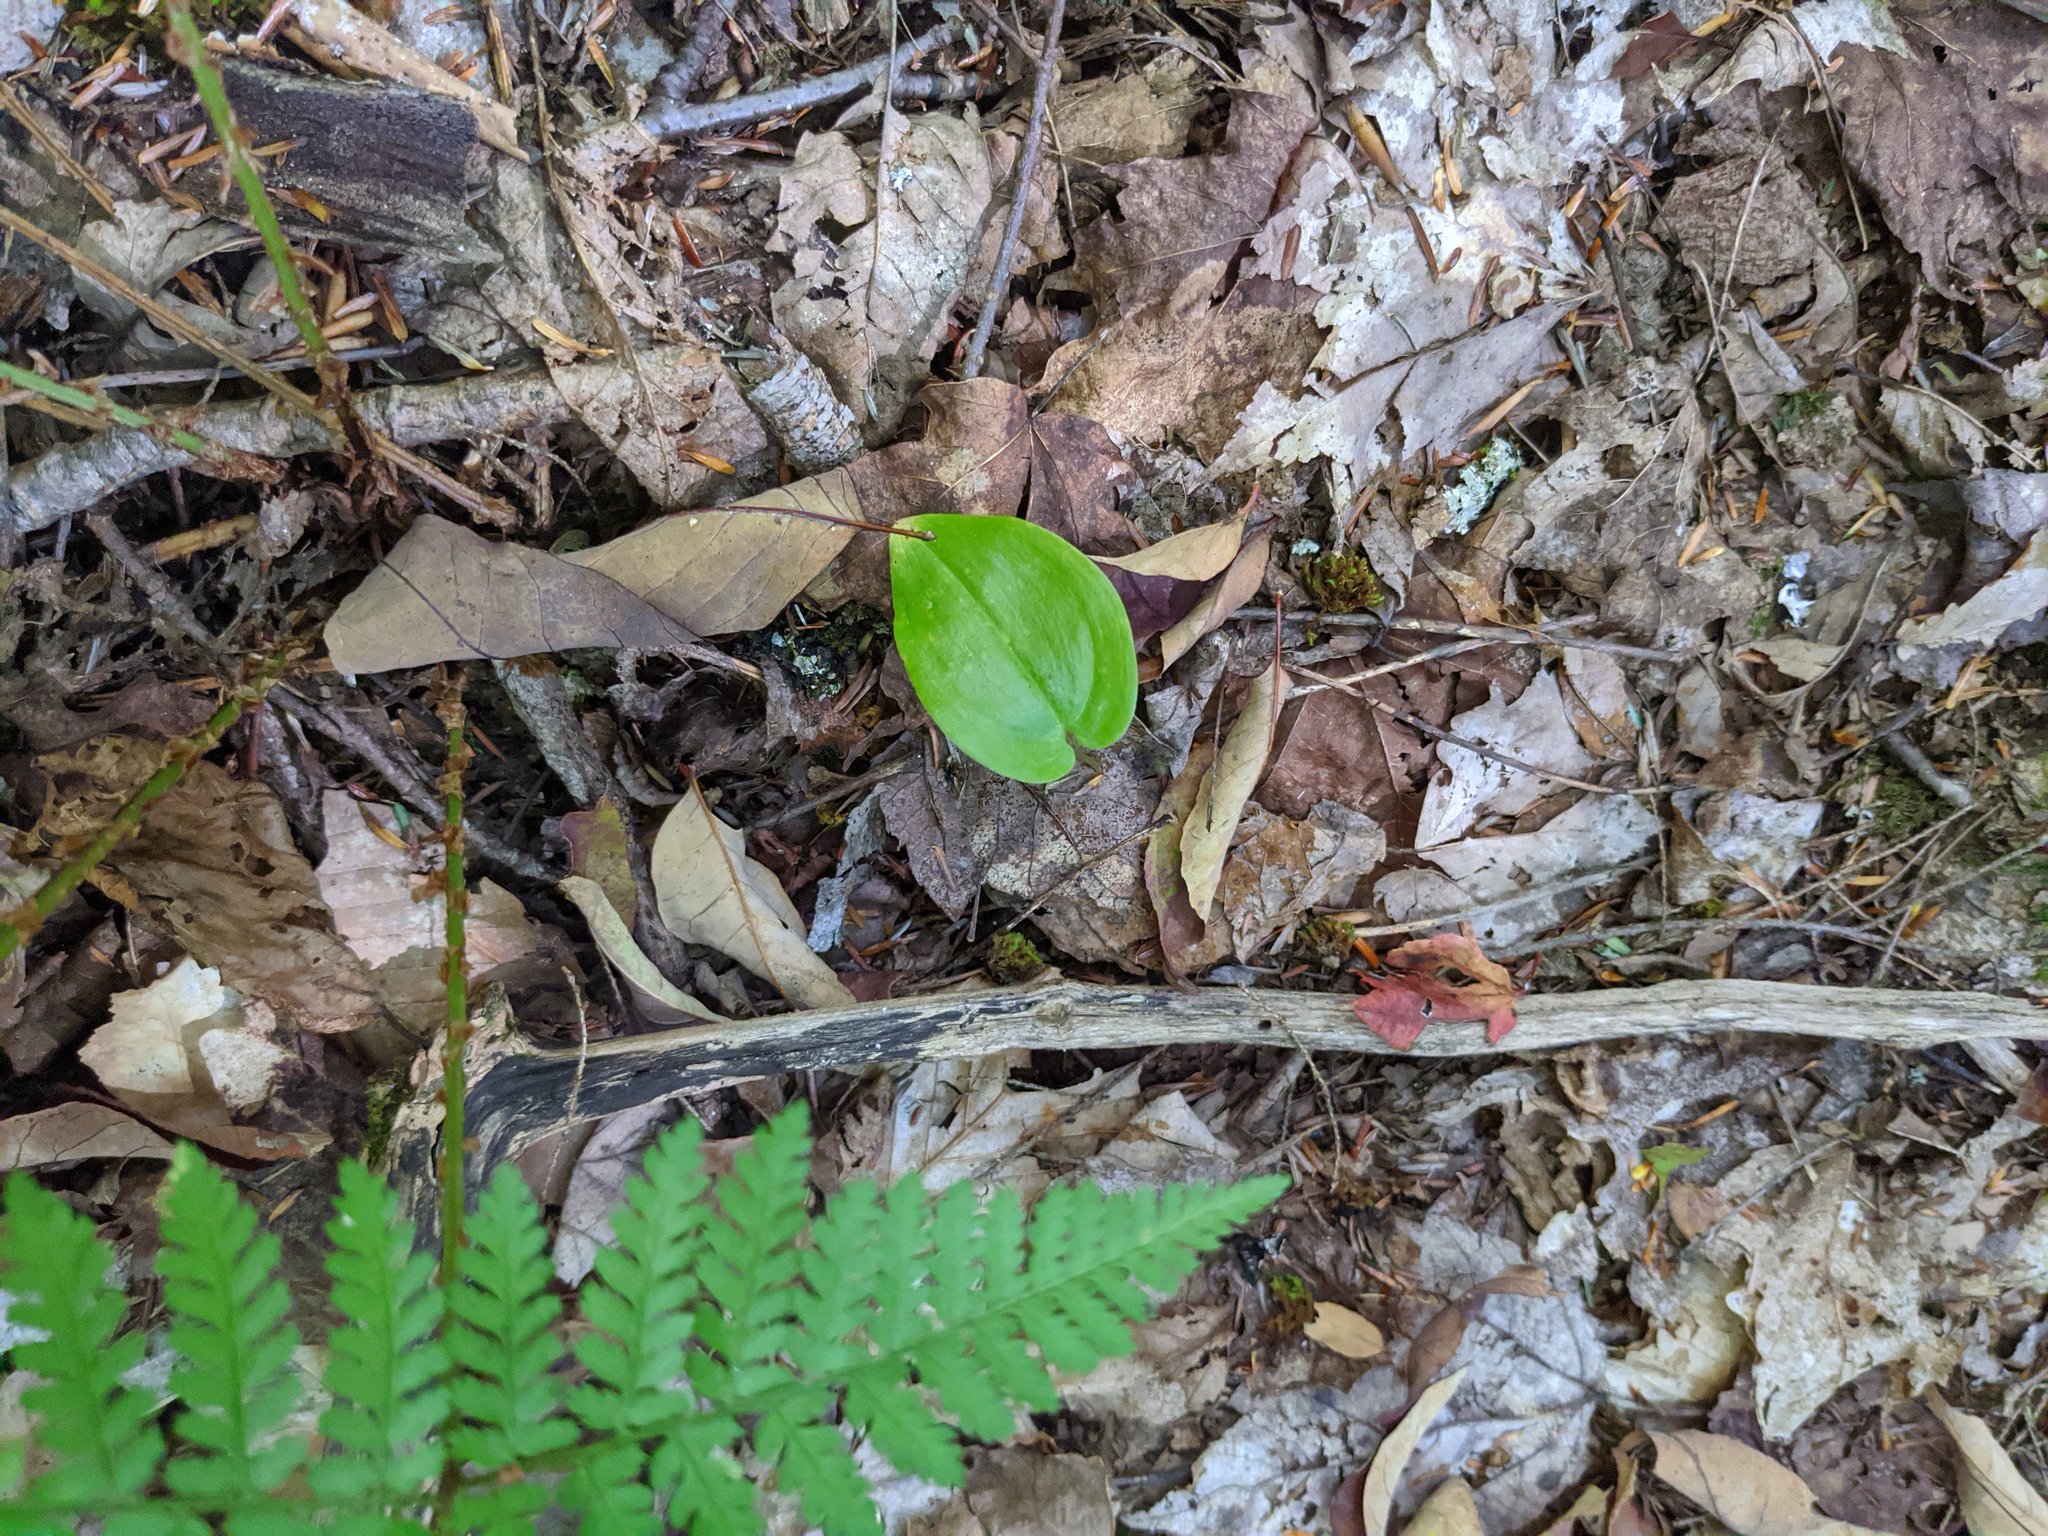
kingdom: Plantae
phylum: Tracheophyta
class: Liliopsida
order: Asparagales
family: Asparagaceae
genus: Maianthemum
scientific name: Maianthemum canadense
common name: False lily-of-the-valley
